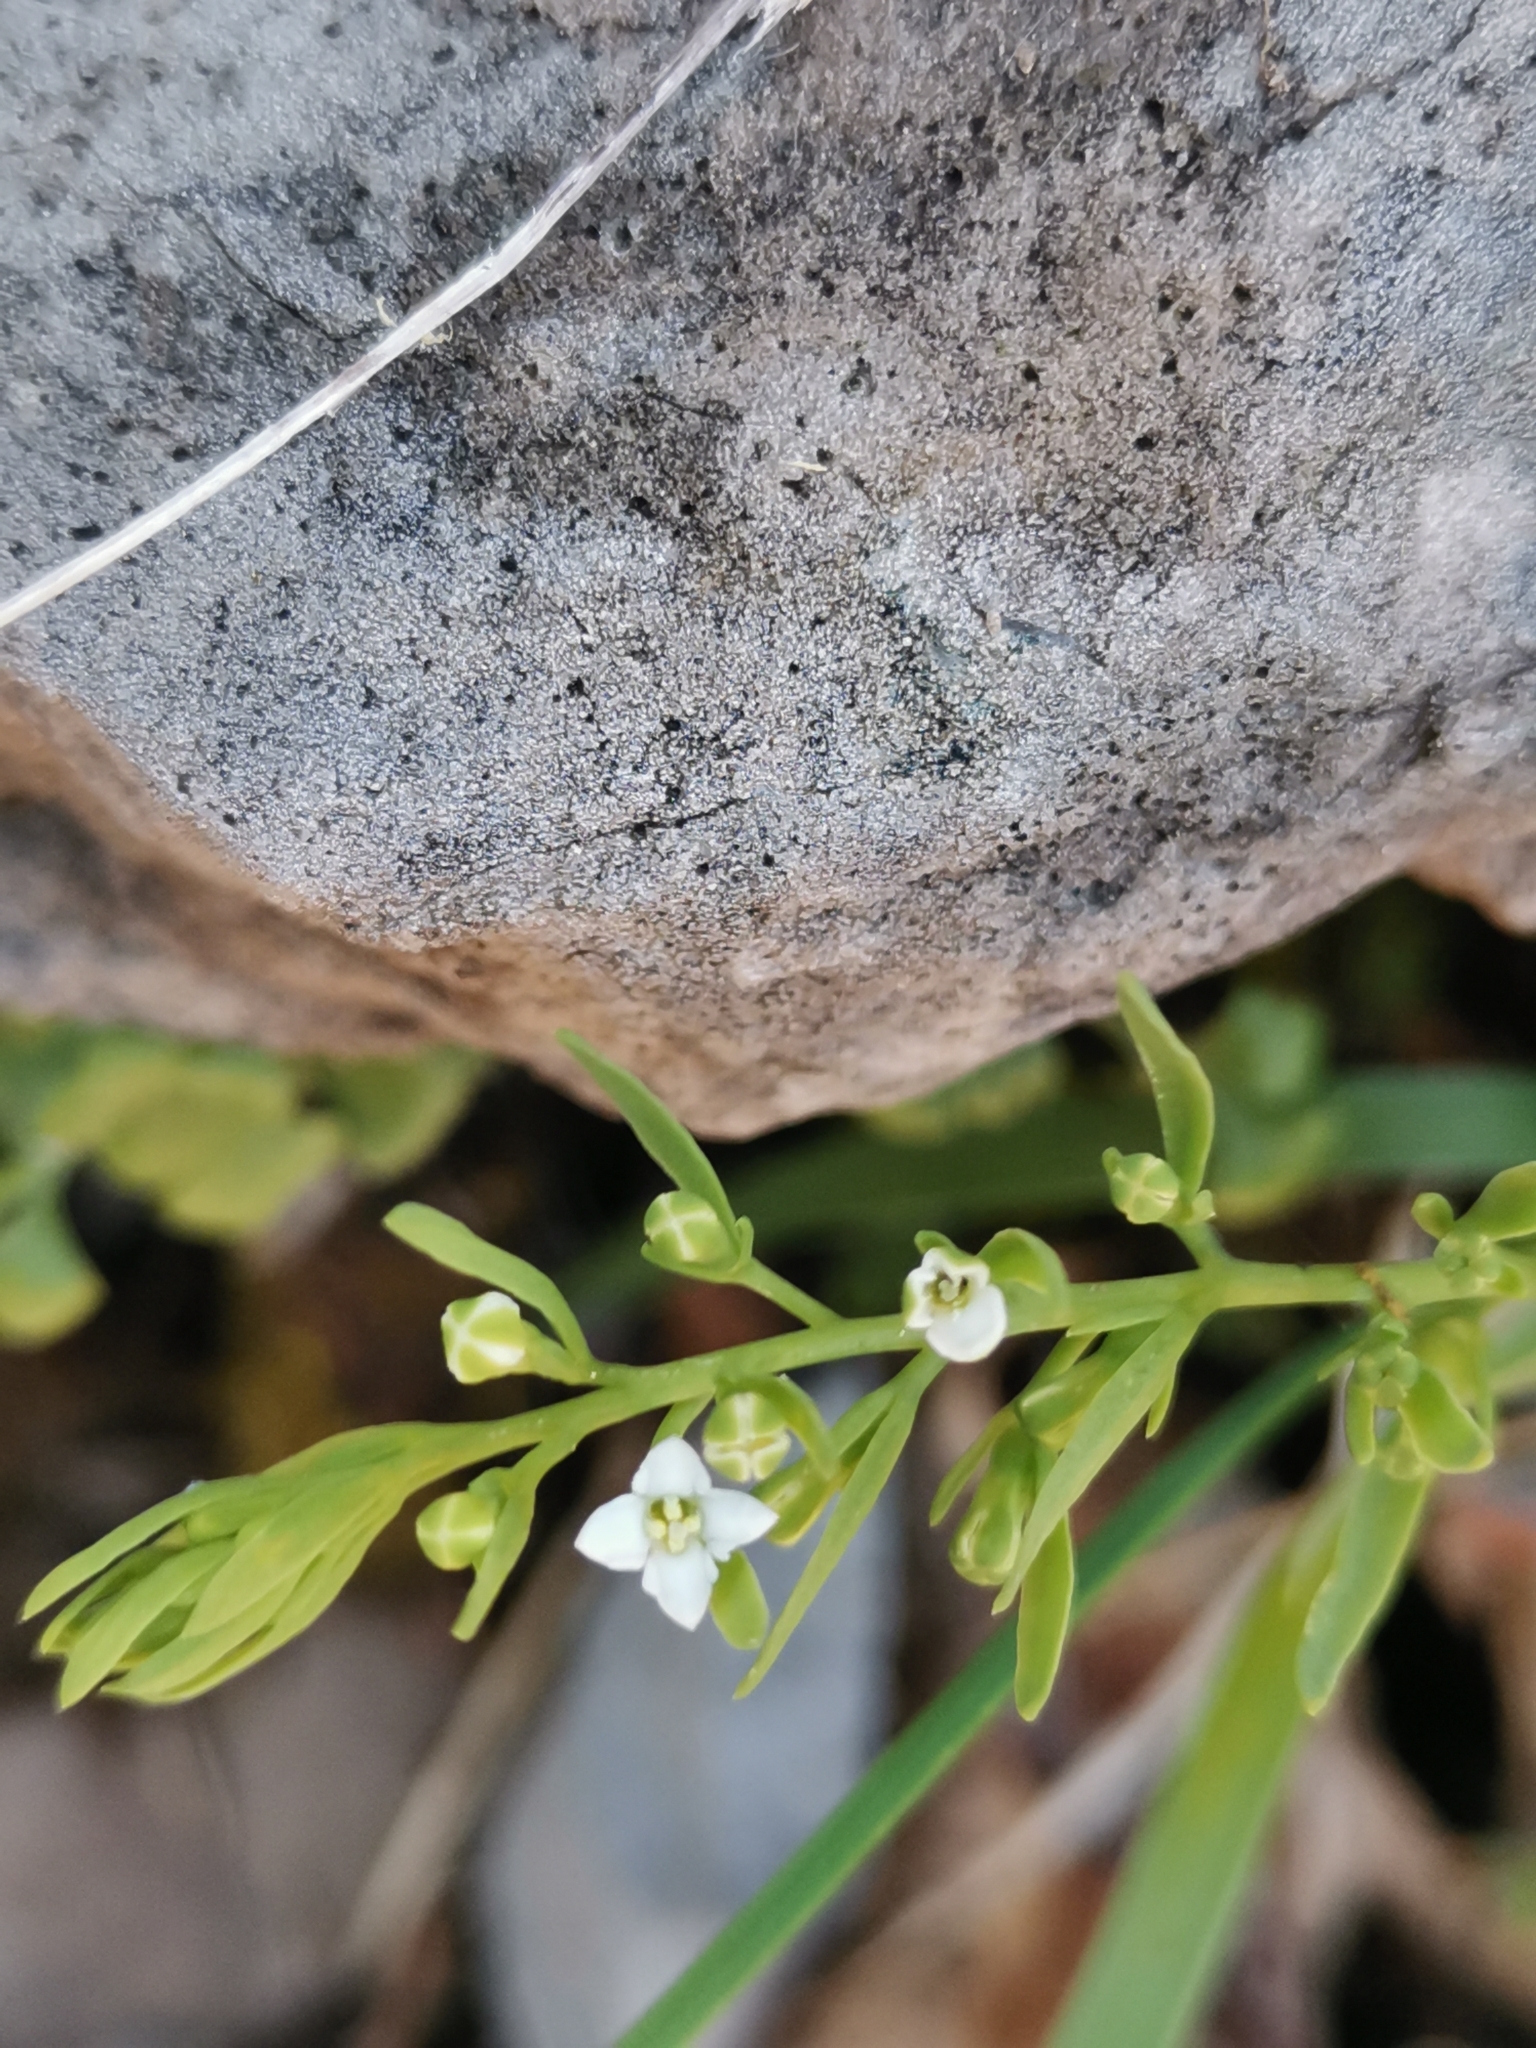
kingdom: Plantae
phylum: Tracheophyta
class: Magnoliopsida
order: Santalales
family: Thesiaceae
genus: Thesium
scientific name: Thesium alpinum
